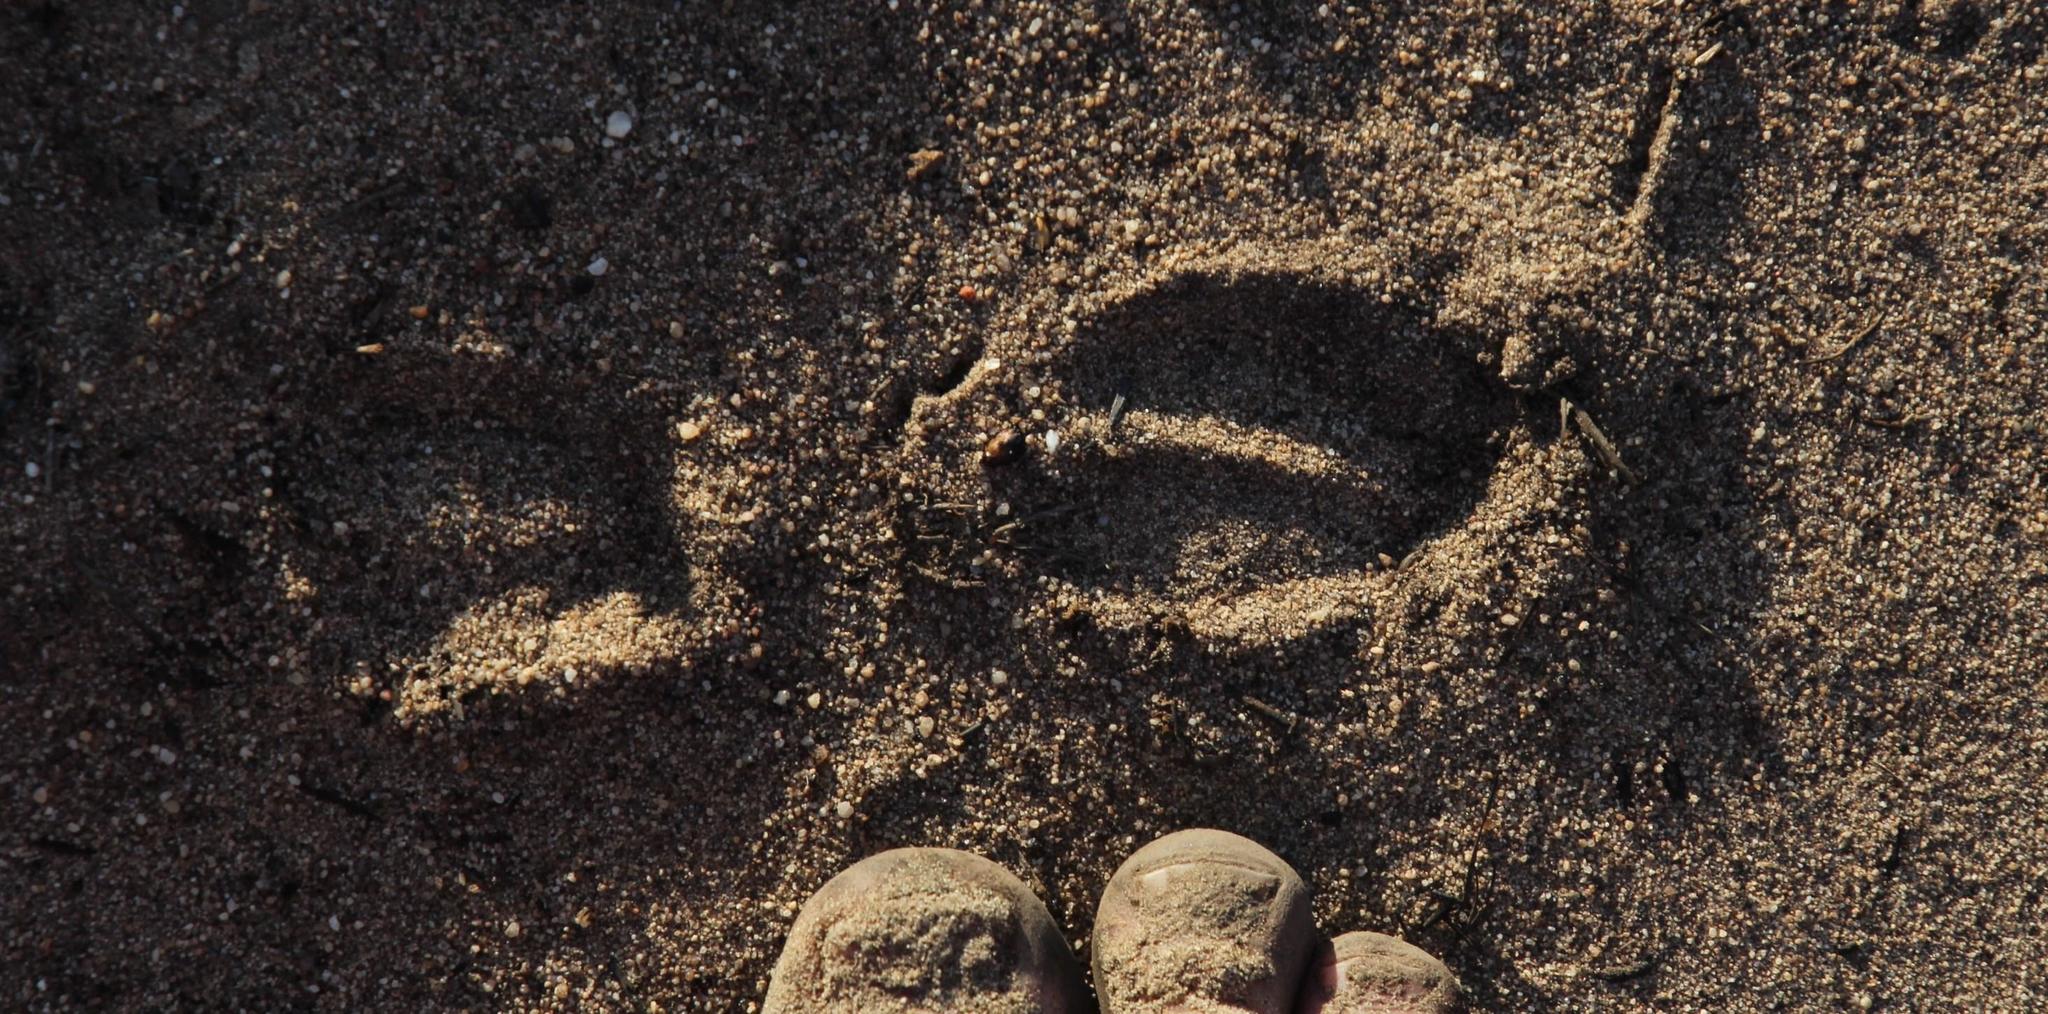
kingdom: Animalia
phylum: Chordata
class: Mammalia
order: Artiodactyla
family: Bovidae
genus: Sylvicapra
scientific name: Sylvicapra grimmia
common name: Bush duiker
